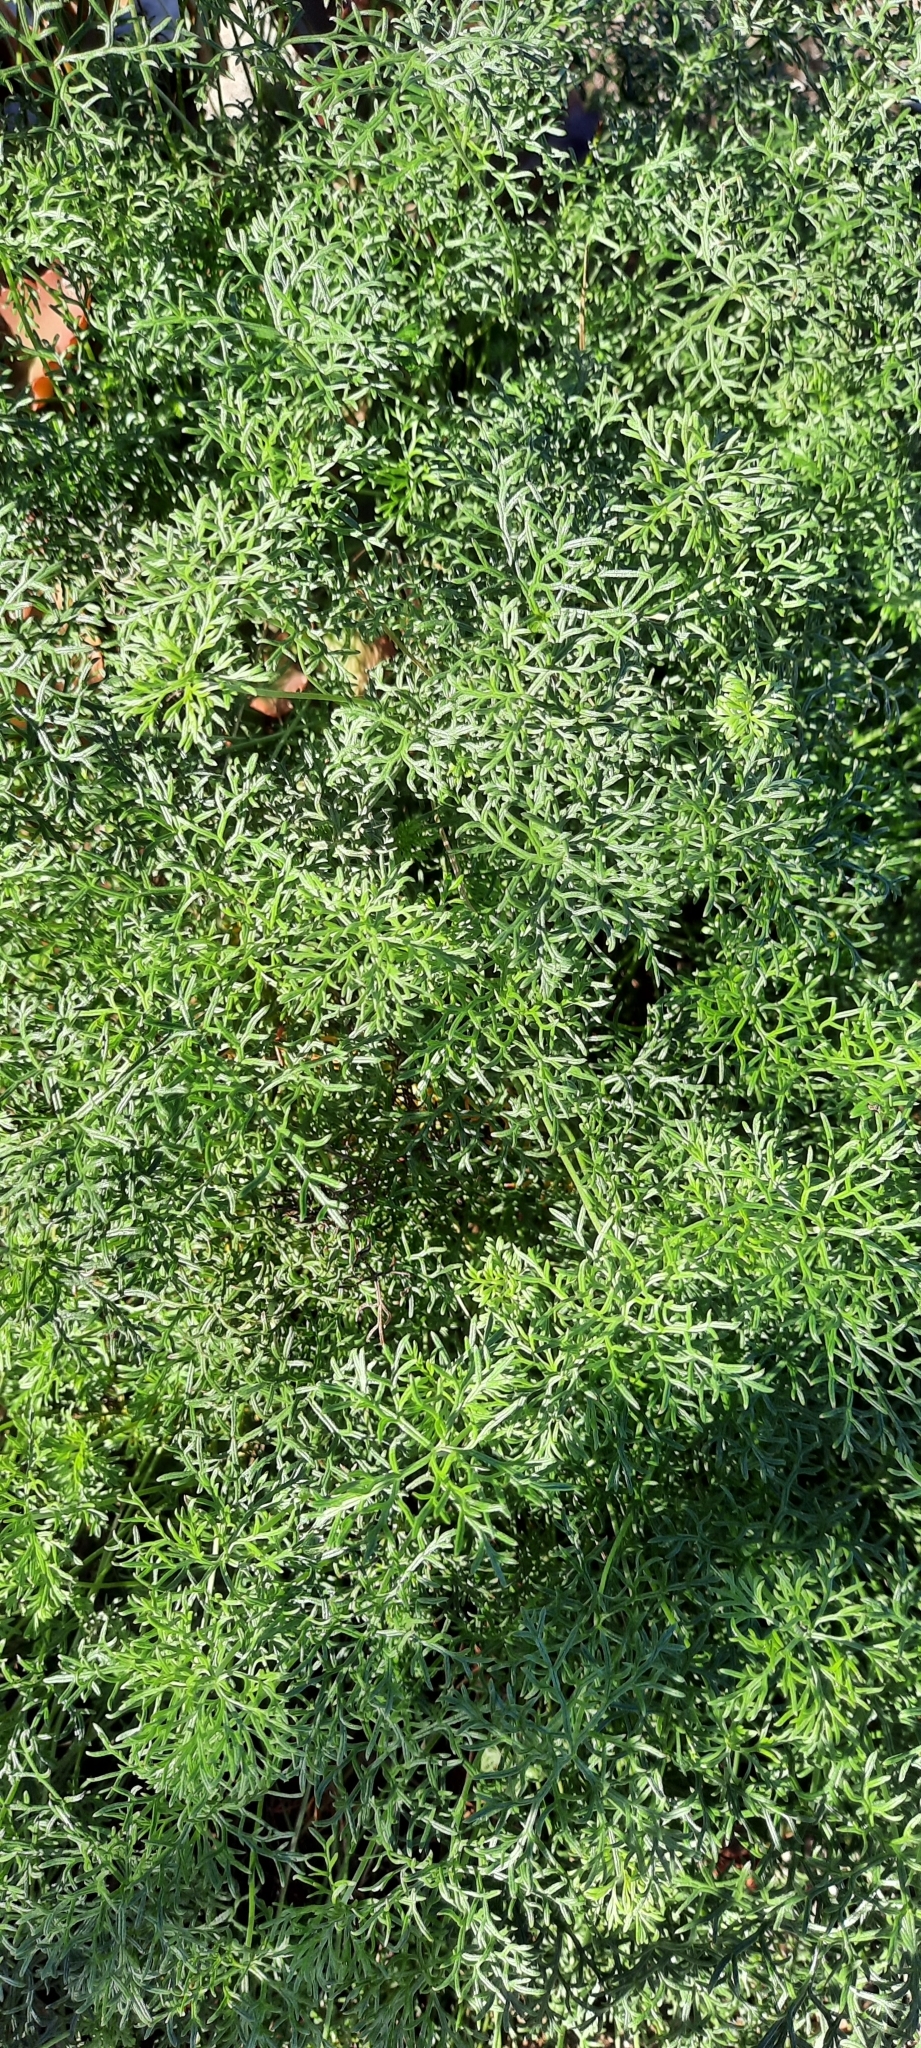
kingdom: Plantae
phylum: Tracheophyta
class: Magnoliopsida
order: Geraniales
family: Geraniaceae
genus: Geranium
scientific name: Geranium incanum
